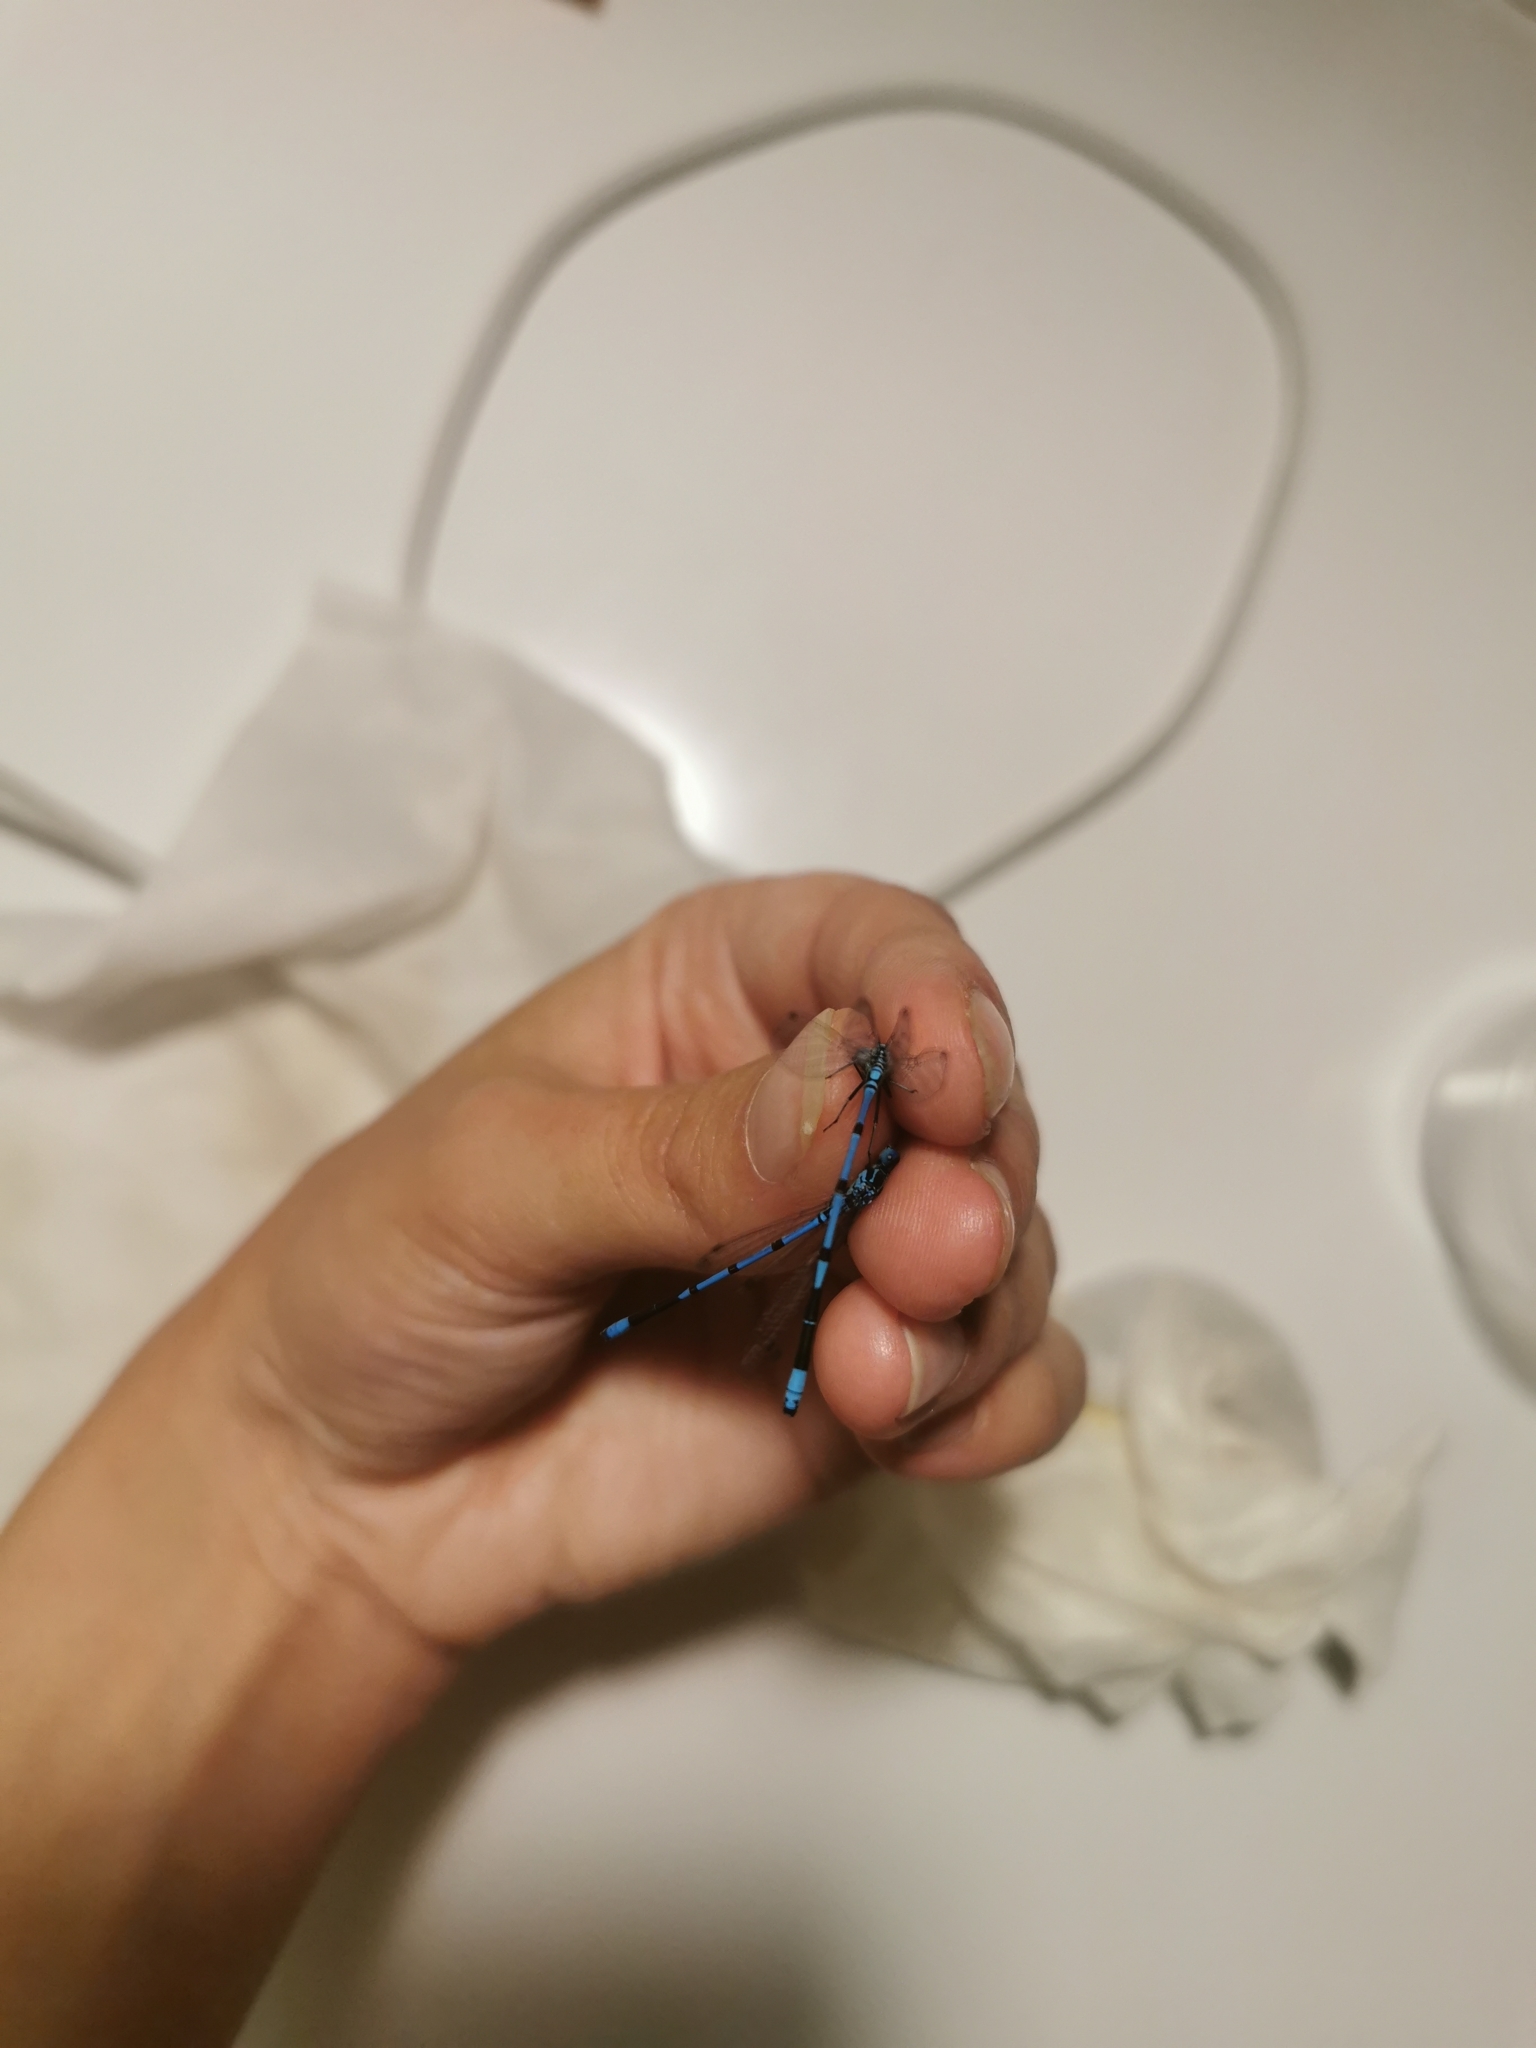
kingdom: Animalia
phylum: Arthropoda
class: Insecta
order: Odonata
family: Coenagrionidae
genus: Coenagrion
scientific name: Coenagrion puella
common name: Azure damselfly
